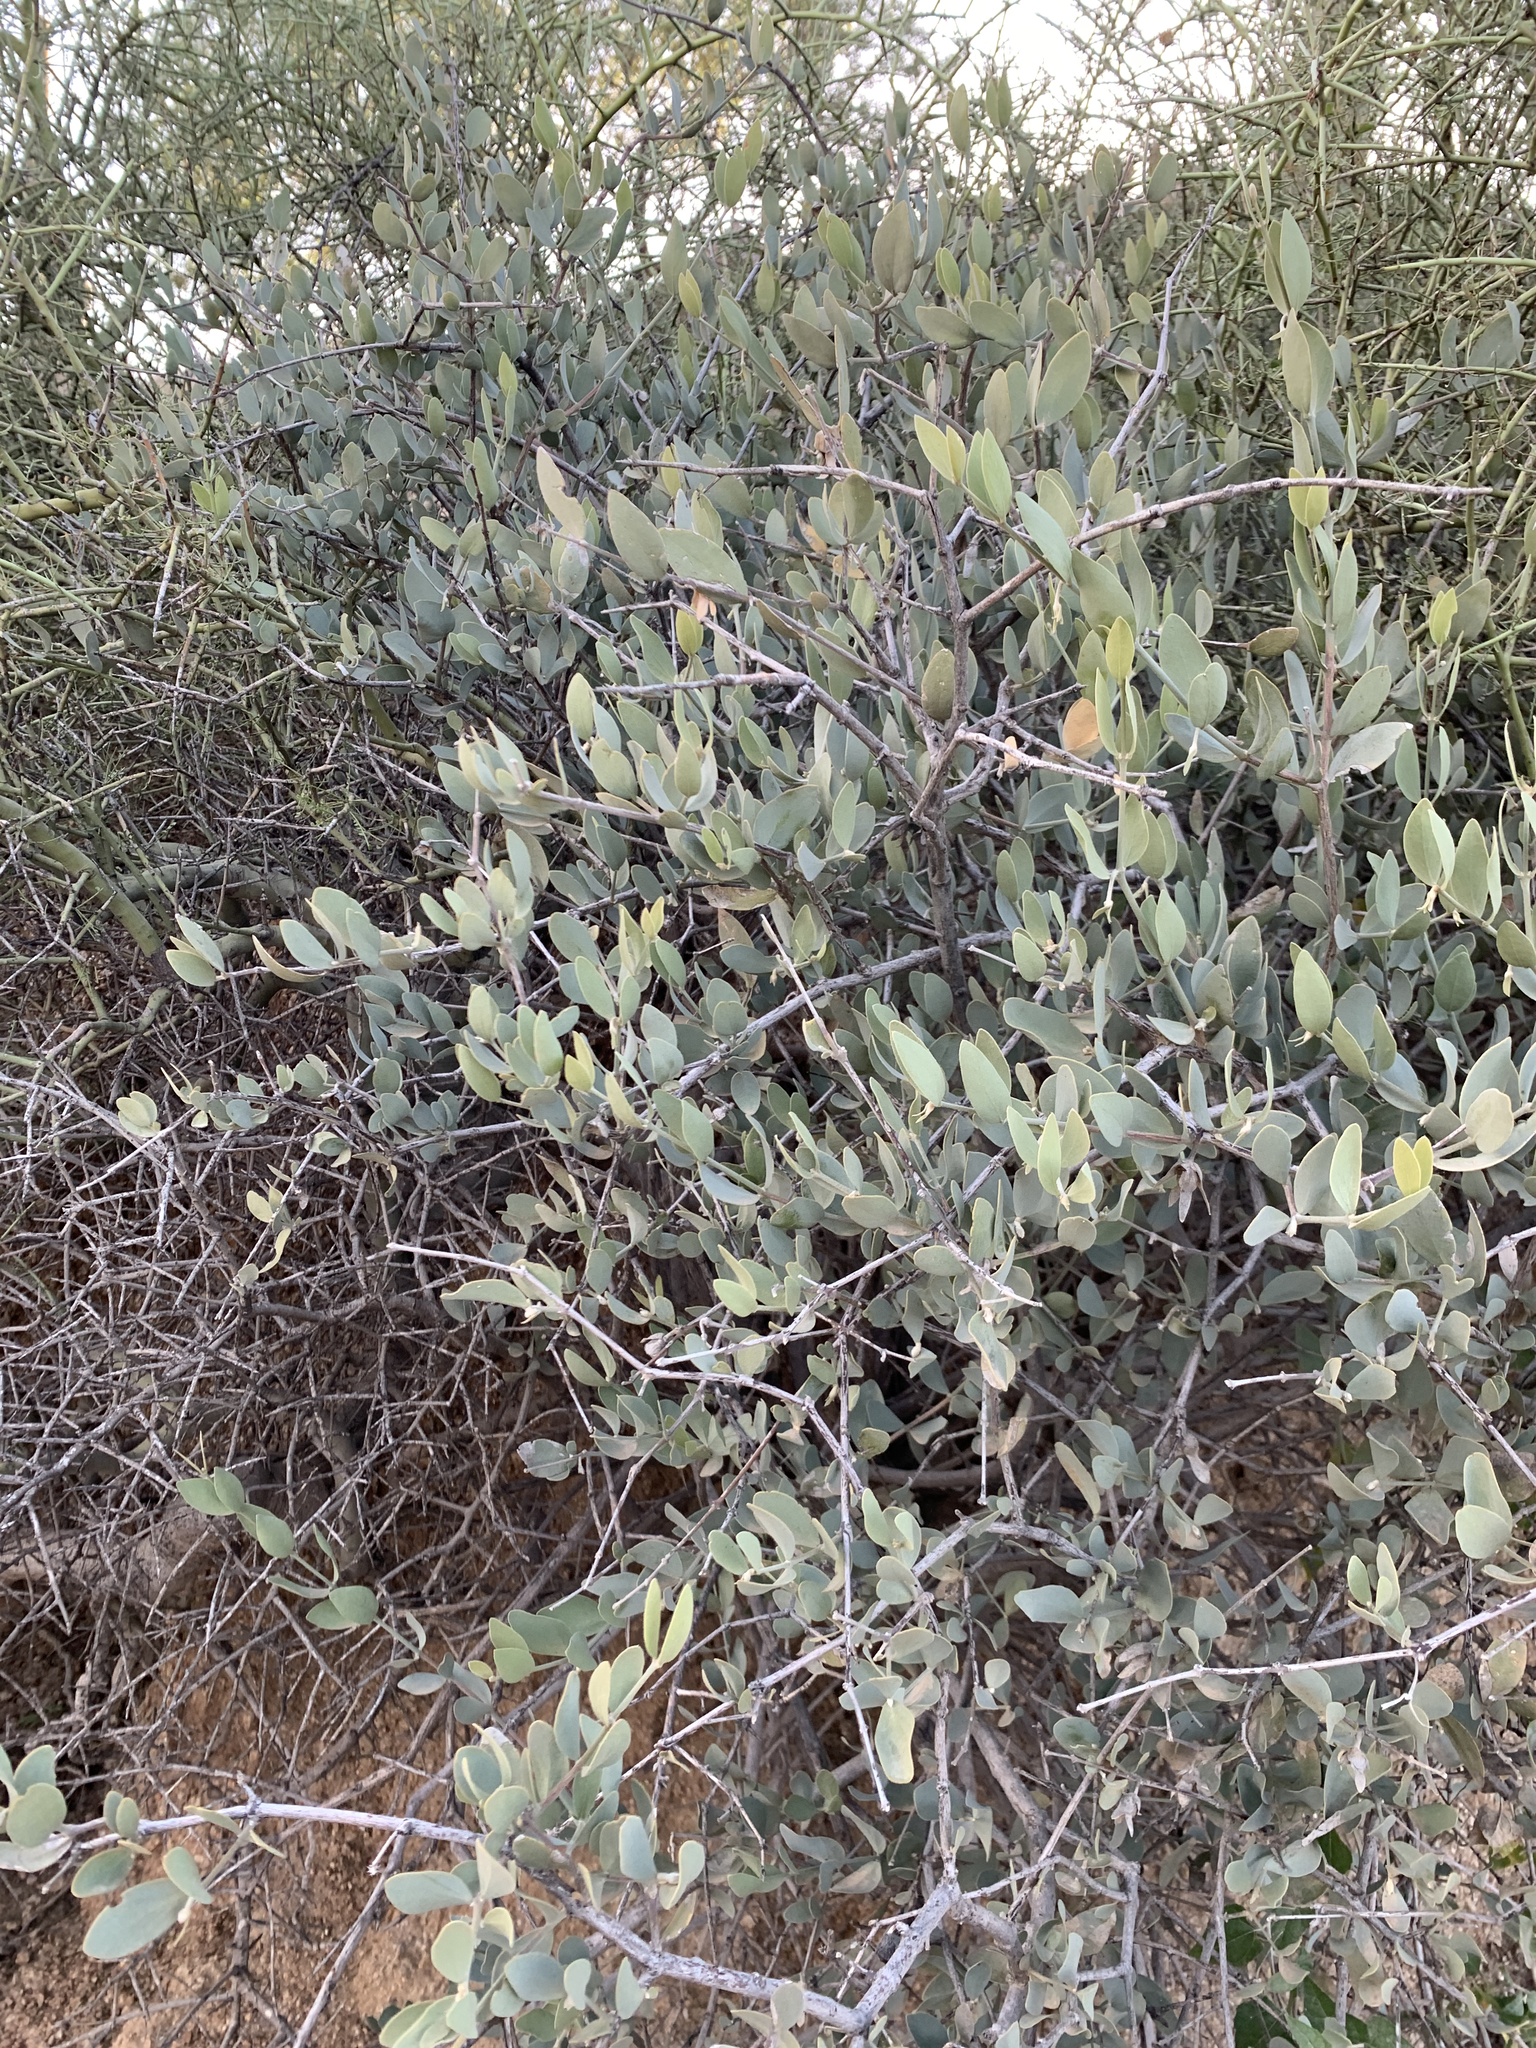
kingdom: Plantae
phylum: Tracheophyta
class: Magnoliopsida
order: Caryophyllales
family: Simmondsiaceae
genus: Simmondsia
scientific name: Simmondsia chinensis
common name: Jojoba
